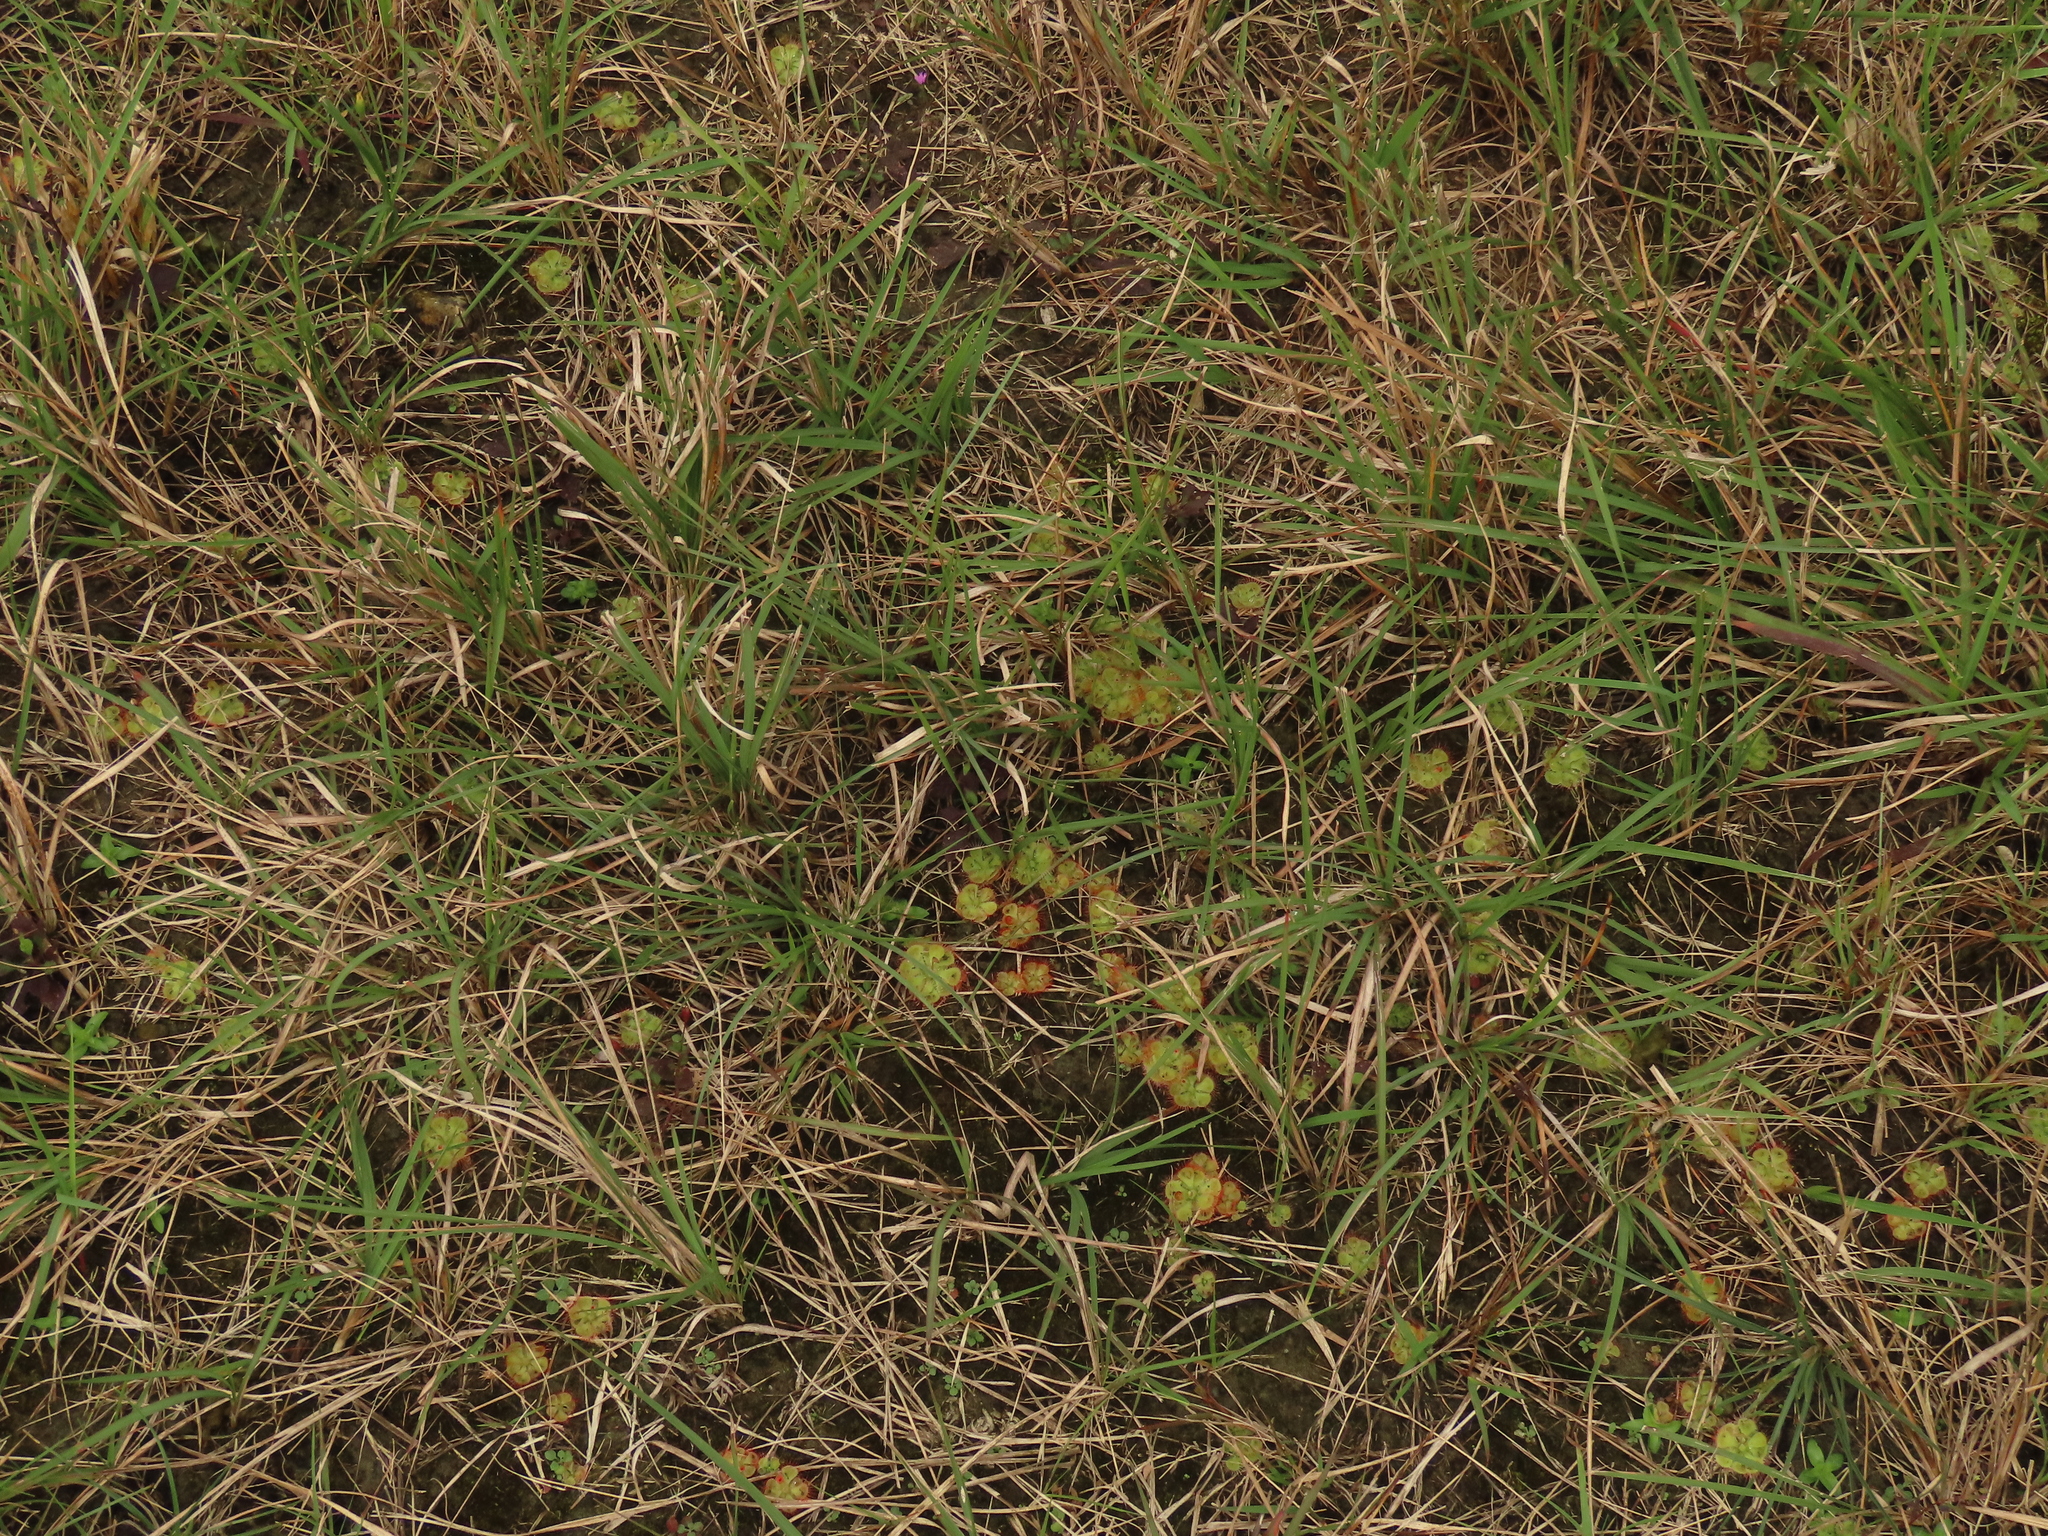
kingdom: Plantae
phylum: Tracheophyta
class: Magnoliopsida
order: Caryophyllales
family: Droseraceae
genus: Drosera
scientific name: Drosera spatulata
